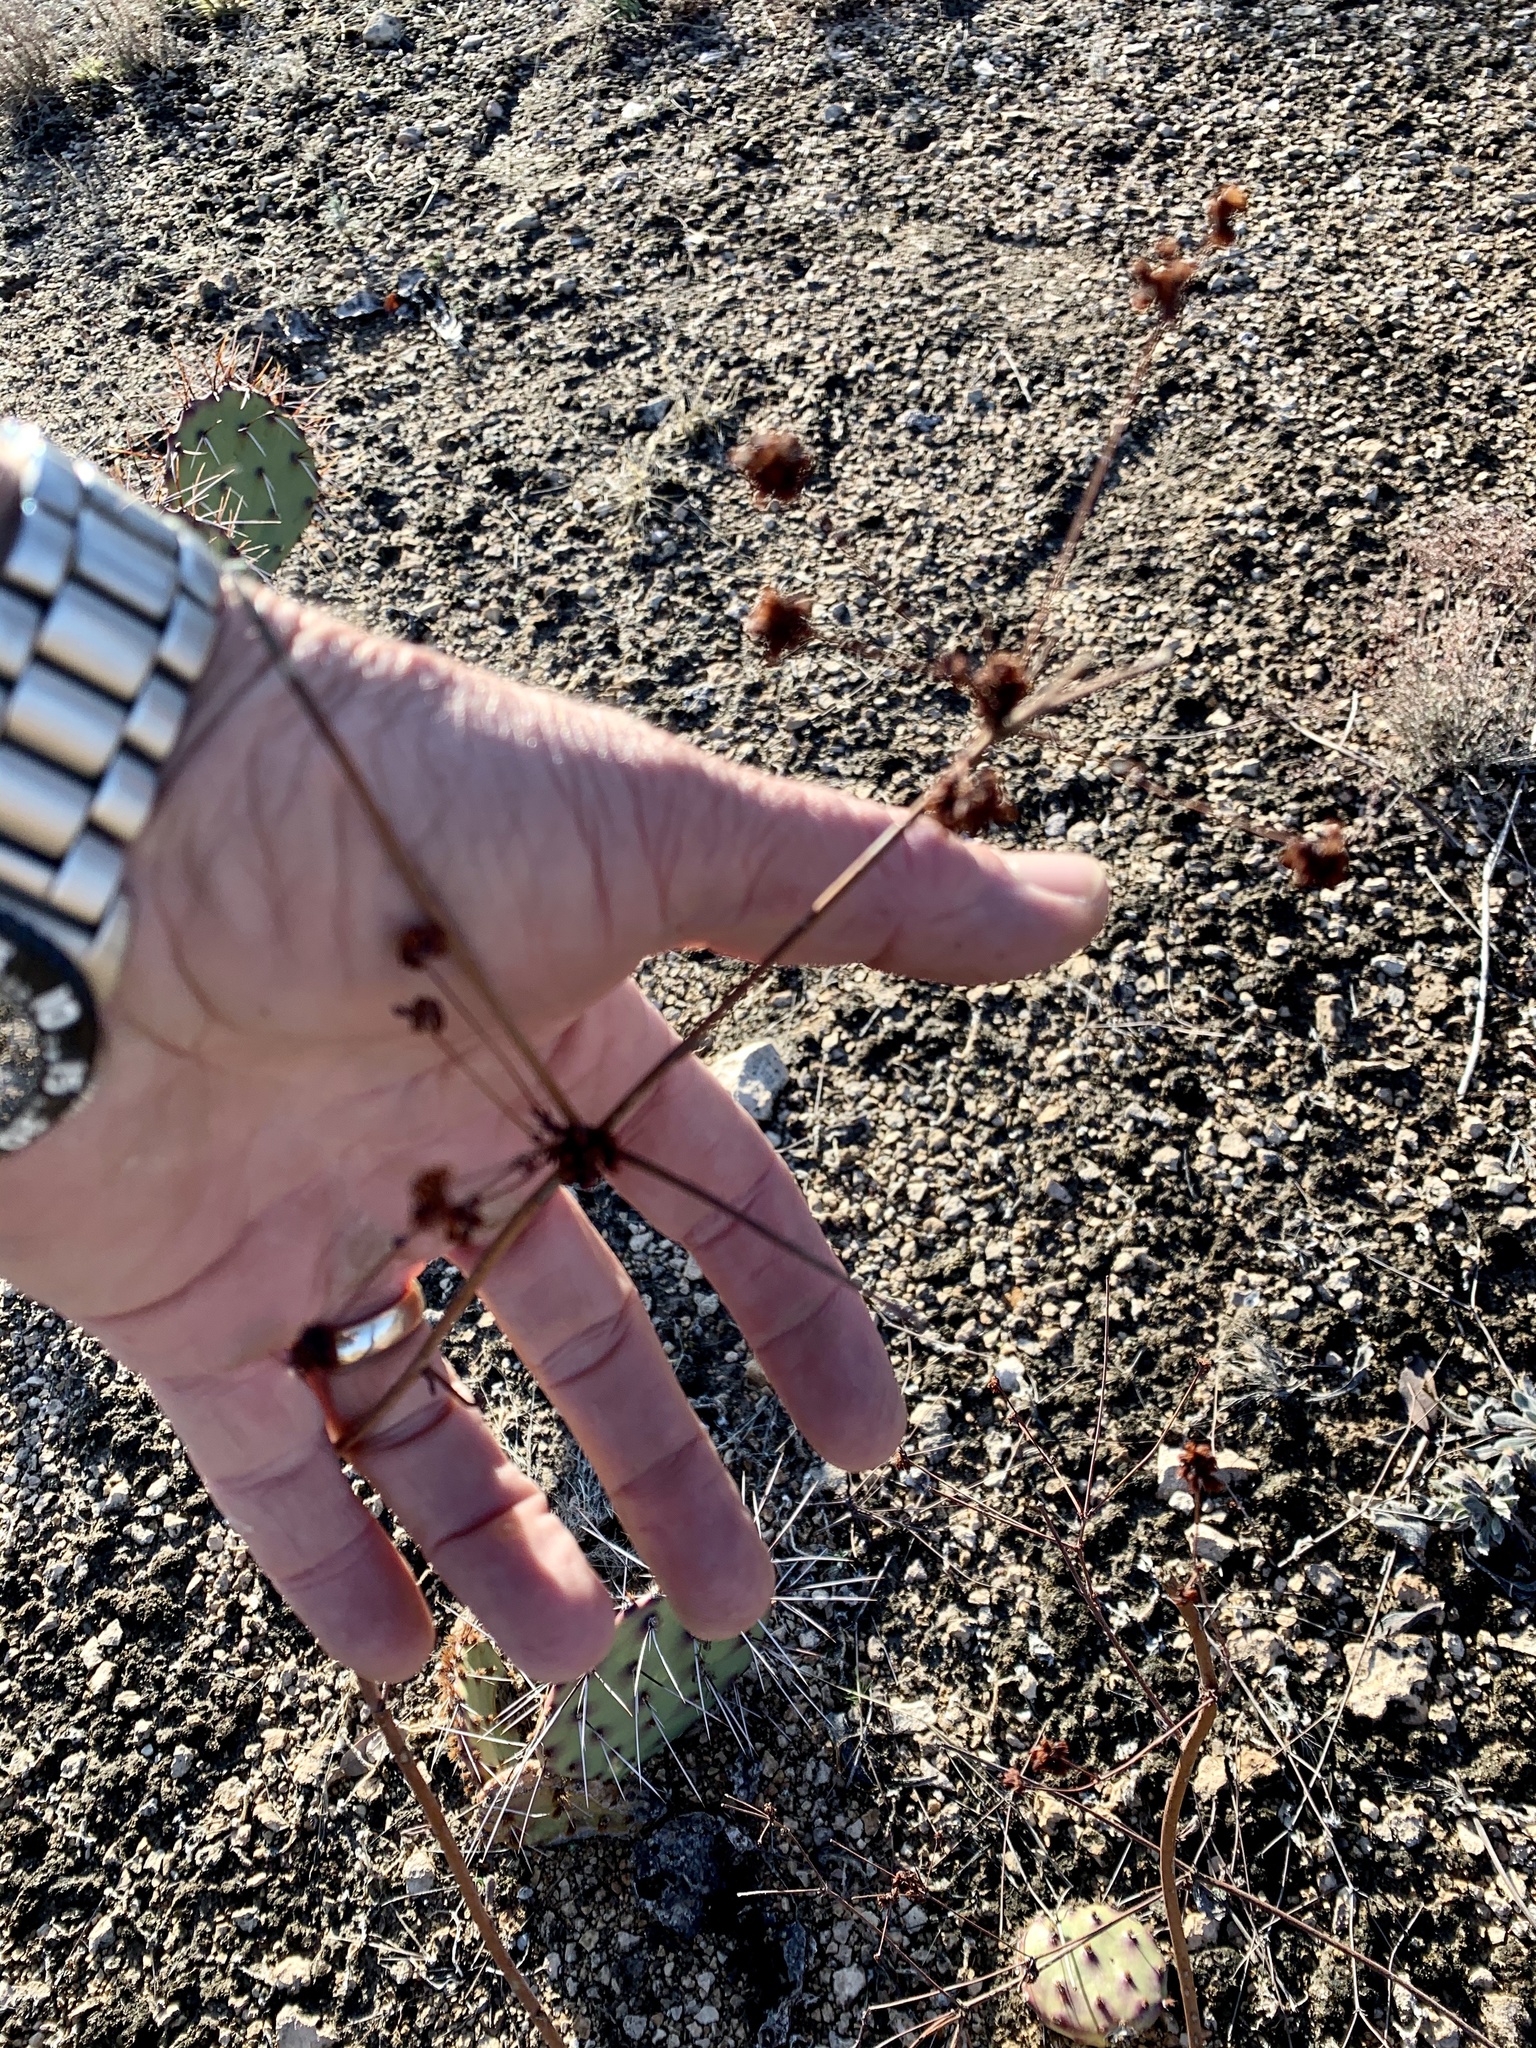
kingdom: Plantae
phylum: Tracheophyta
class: Magnoliopsida
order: Caryophyllales
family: Polygonaceae
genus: Eriogonum
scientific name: Eriogonum nealleyi
